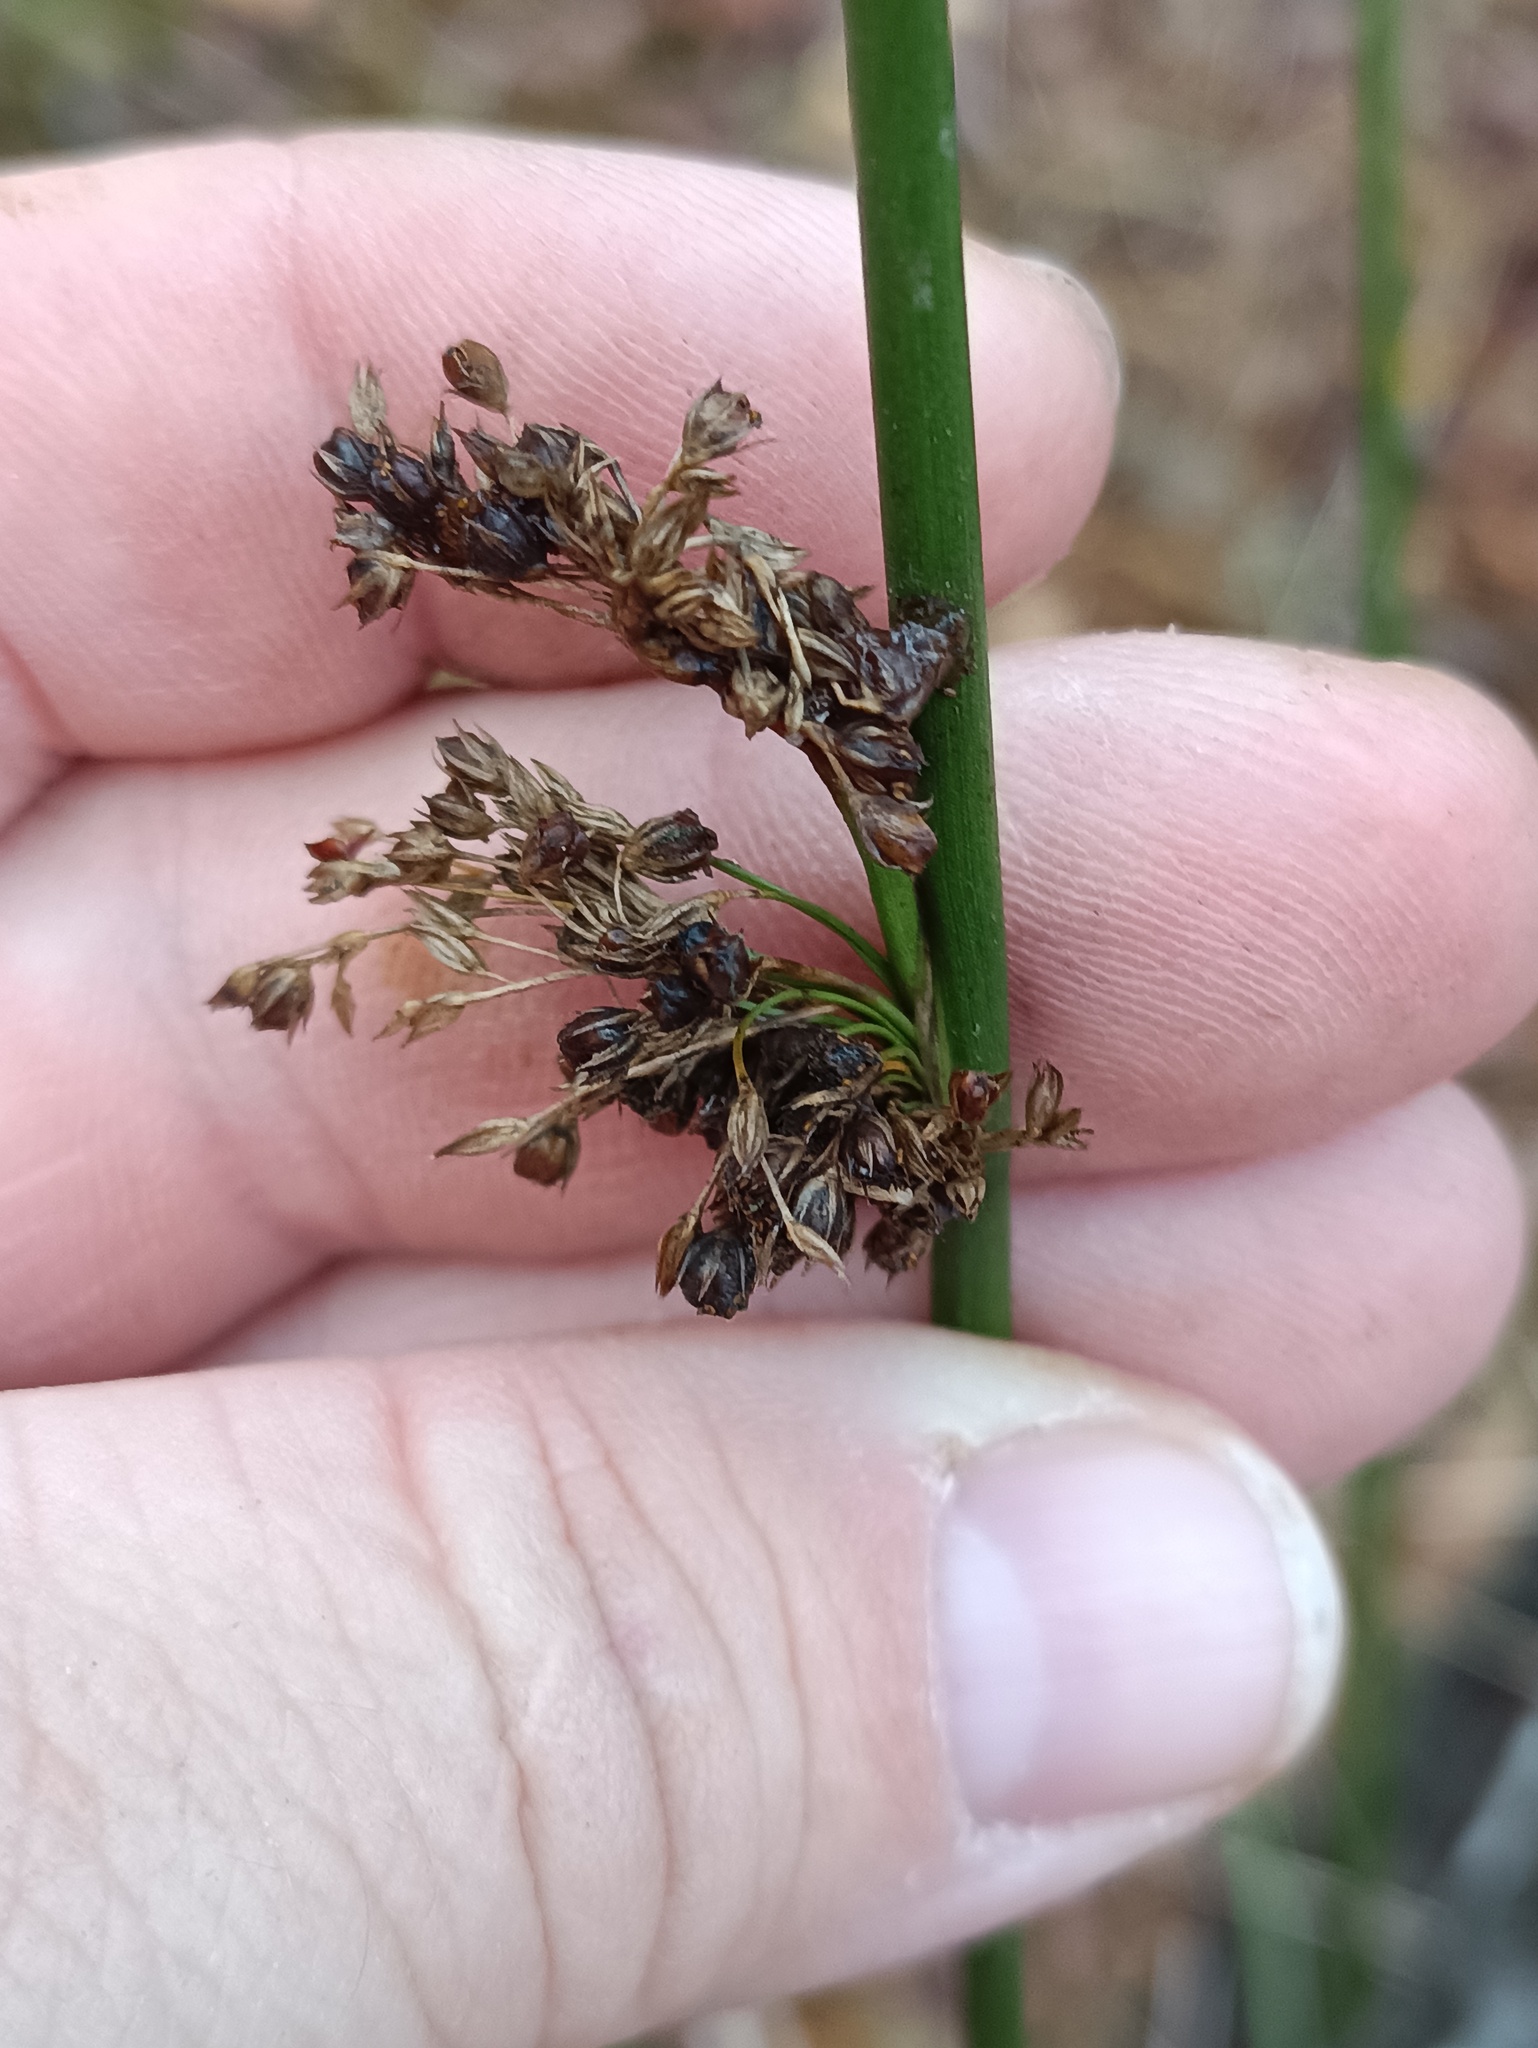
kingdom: Plantae
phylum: Tracheophyta
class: Liliopsida
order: Poales
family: Juncaceae
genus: Juncus
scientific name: Juncus effusus
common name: Soft rush
